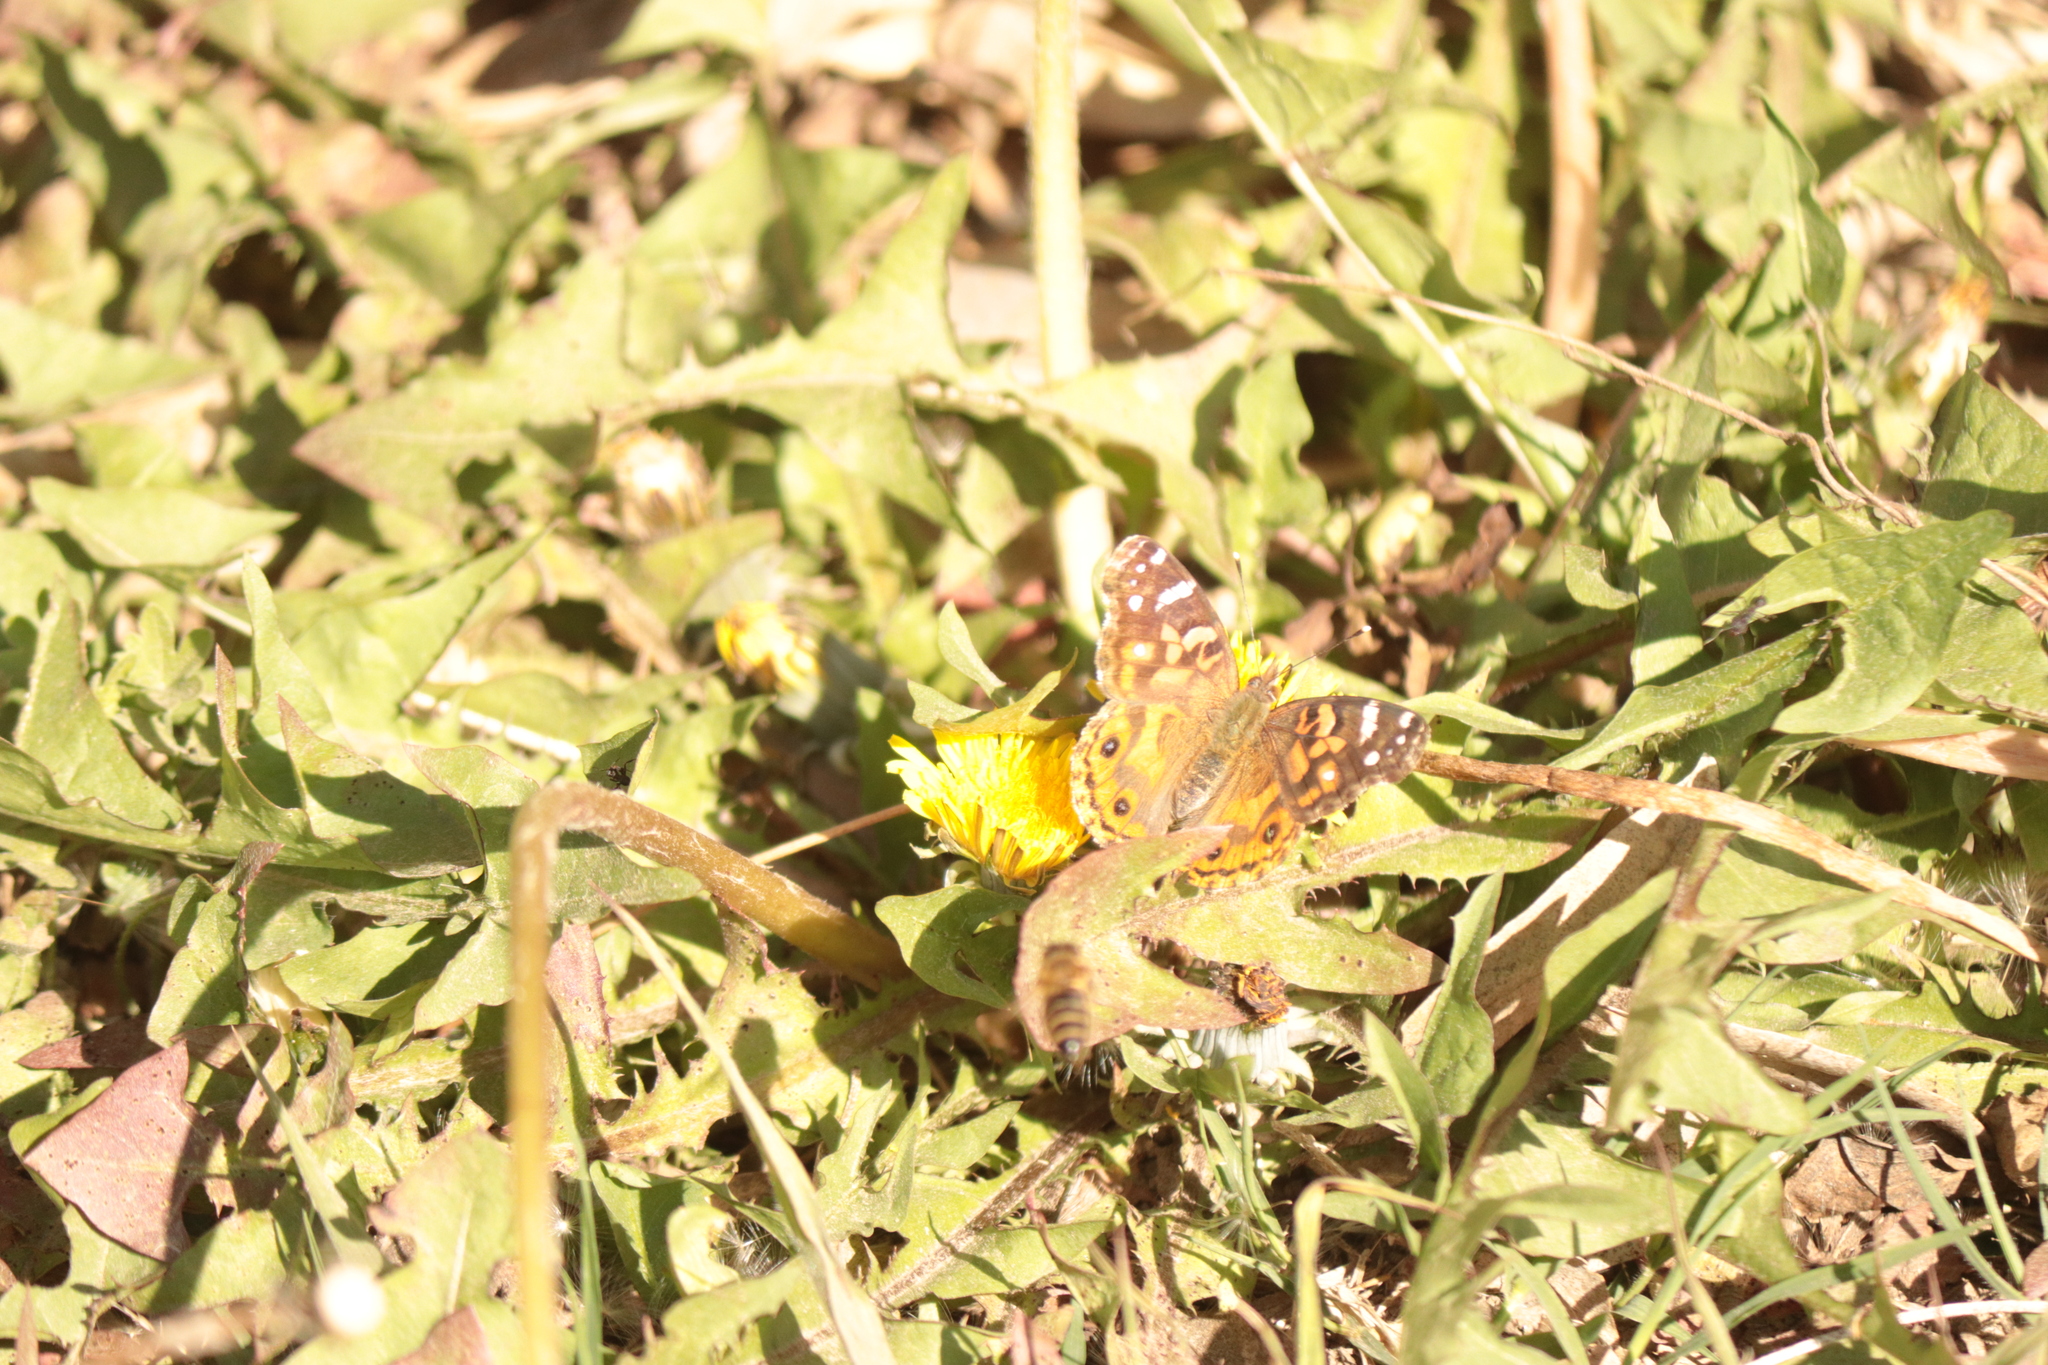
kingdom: Animalia
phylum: Arthropoda
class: Insecta
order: Lepidoptera
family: Nymphalidae
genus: Vanessa
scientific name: Vanessa braziliensis
